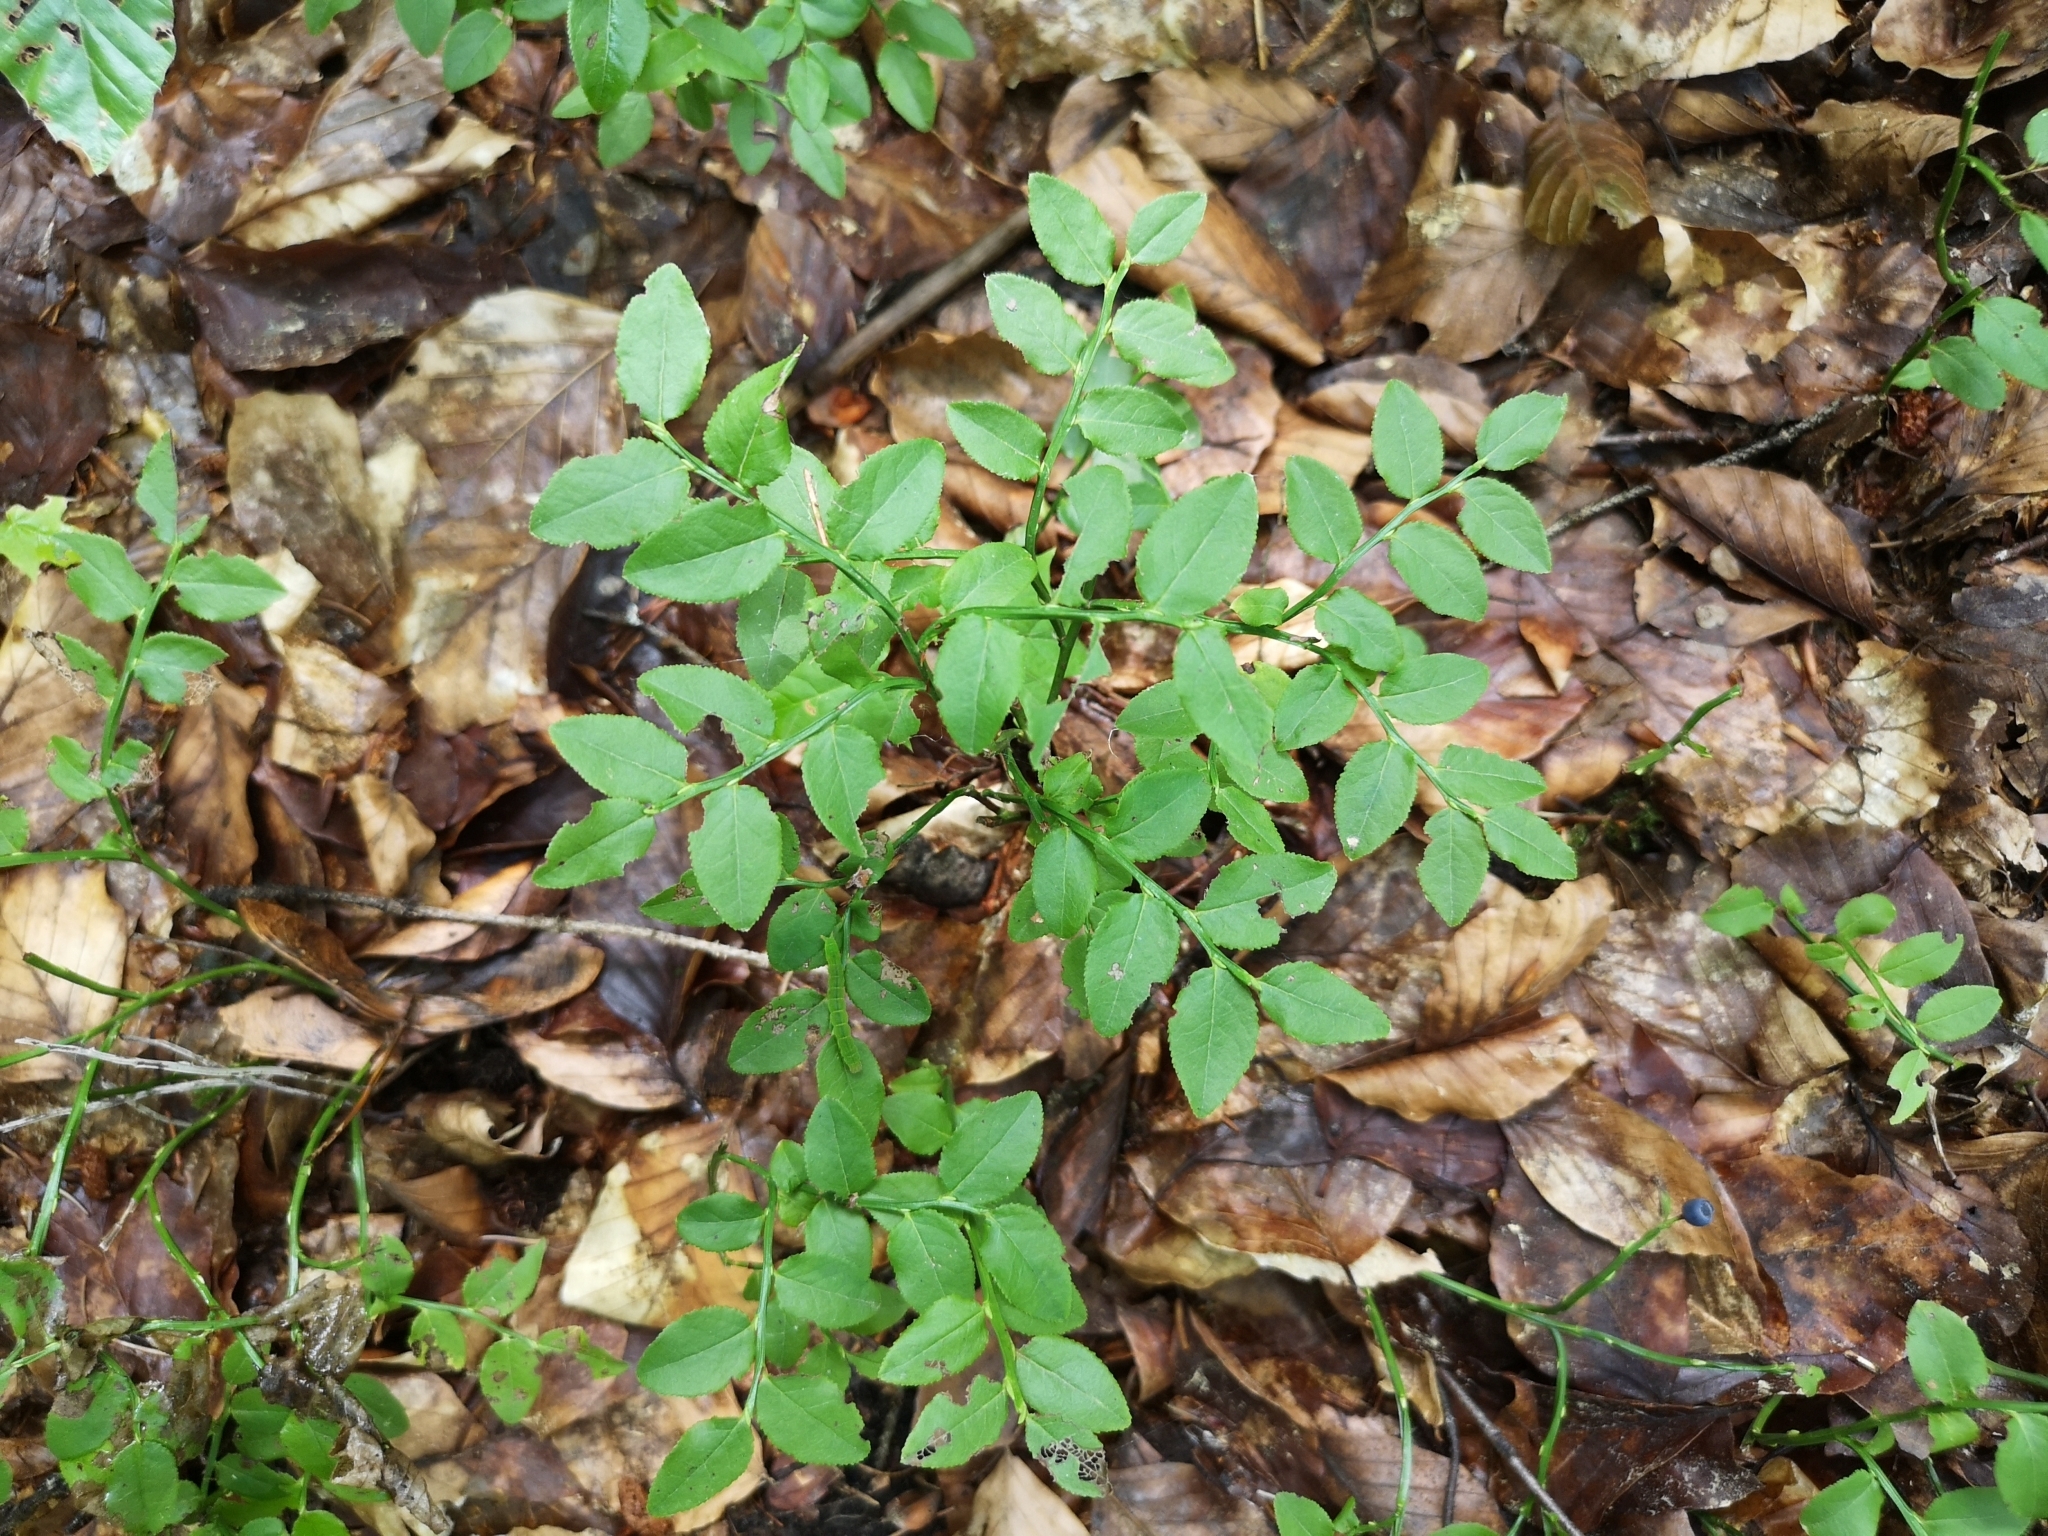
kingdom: Plantae
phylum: Tracheophyta
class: Magnoliopsida
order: Ericales
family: Ericaceae
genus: Vaccinium
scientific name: Vaccinium myrtillus
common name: Bilberry
